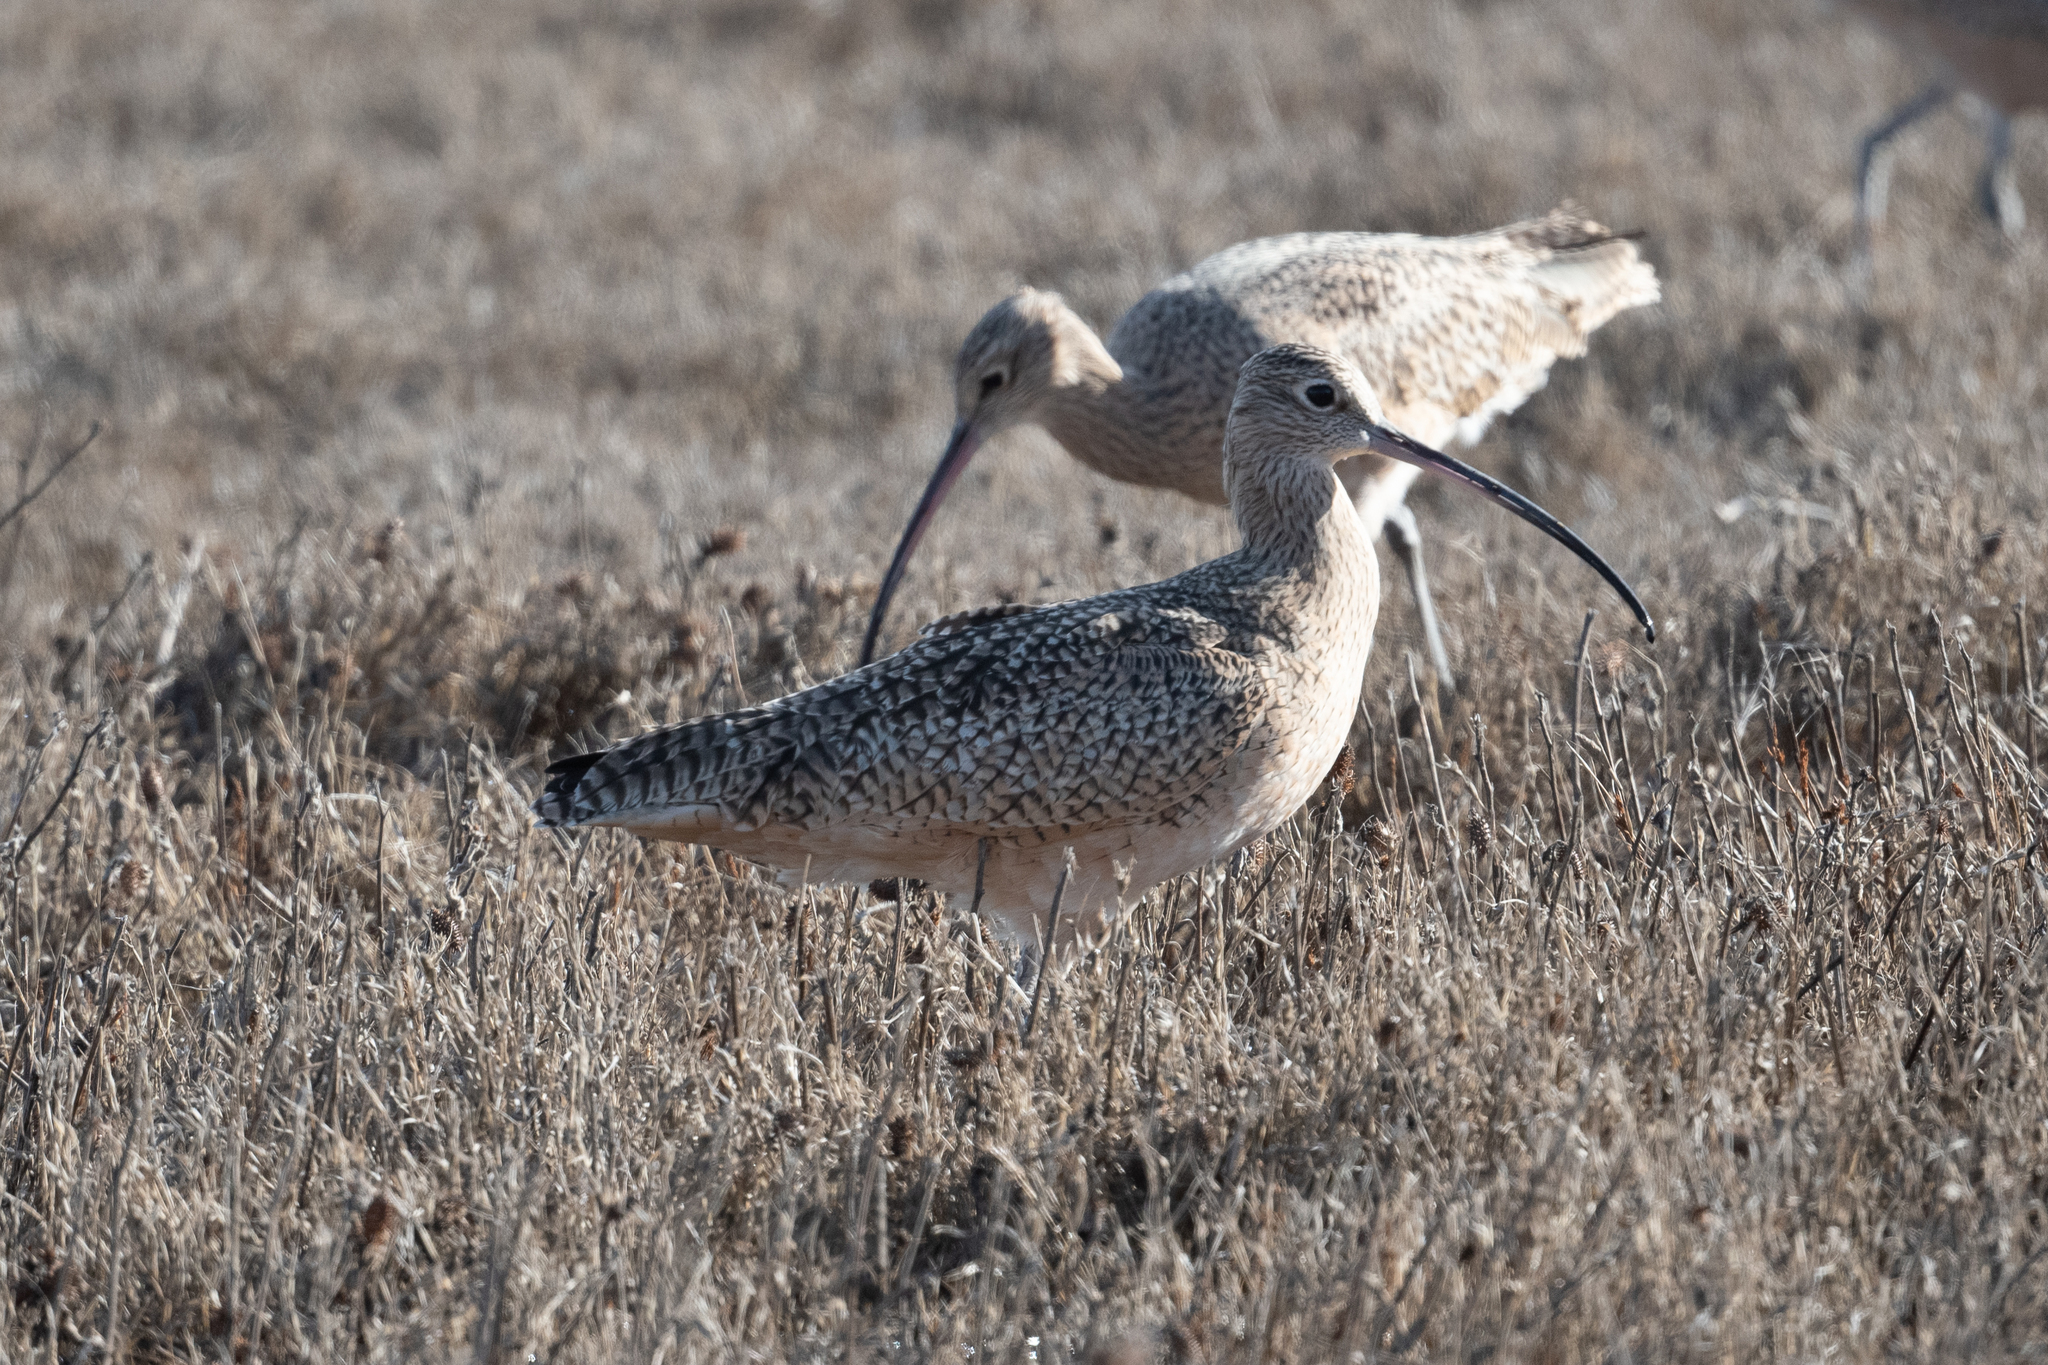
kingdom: Animalia
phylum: Chordata
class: Aves
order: Charadriiformes
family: Scolopacidae
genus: Numenius
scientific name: Numenius americanus
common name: Long-billed curlew
